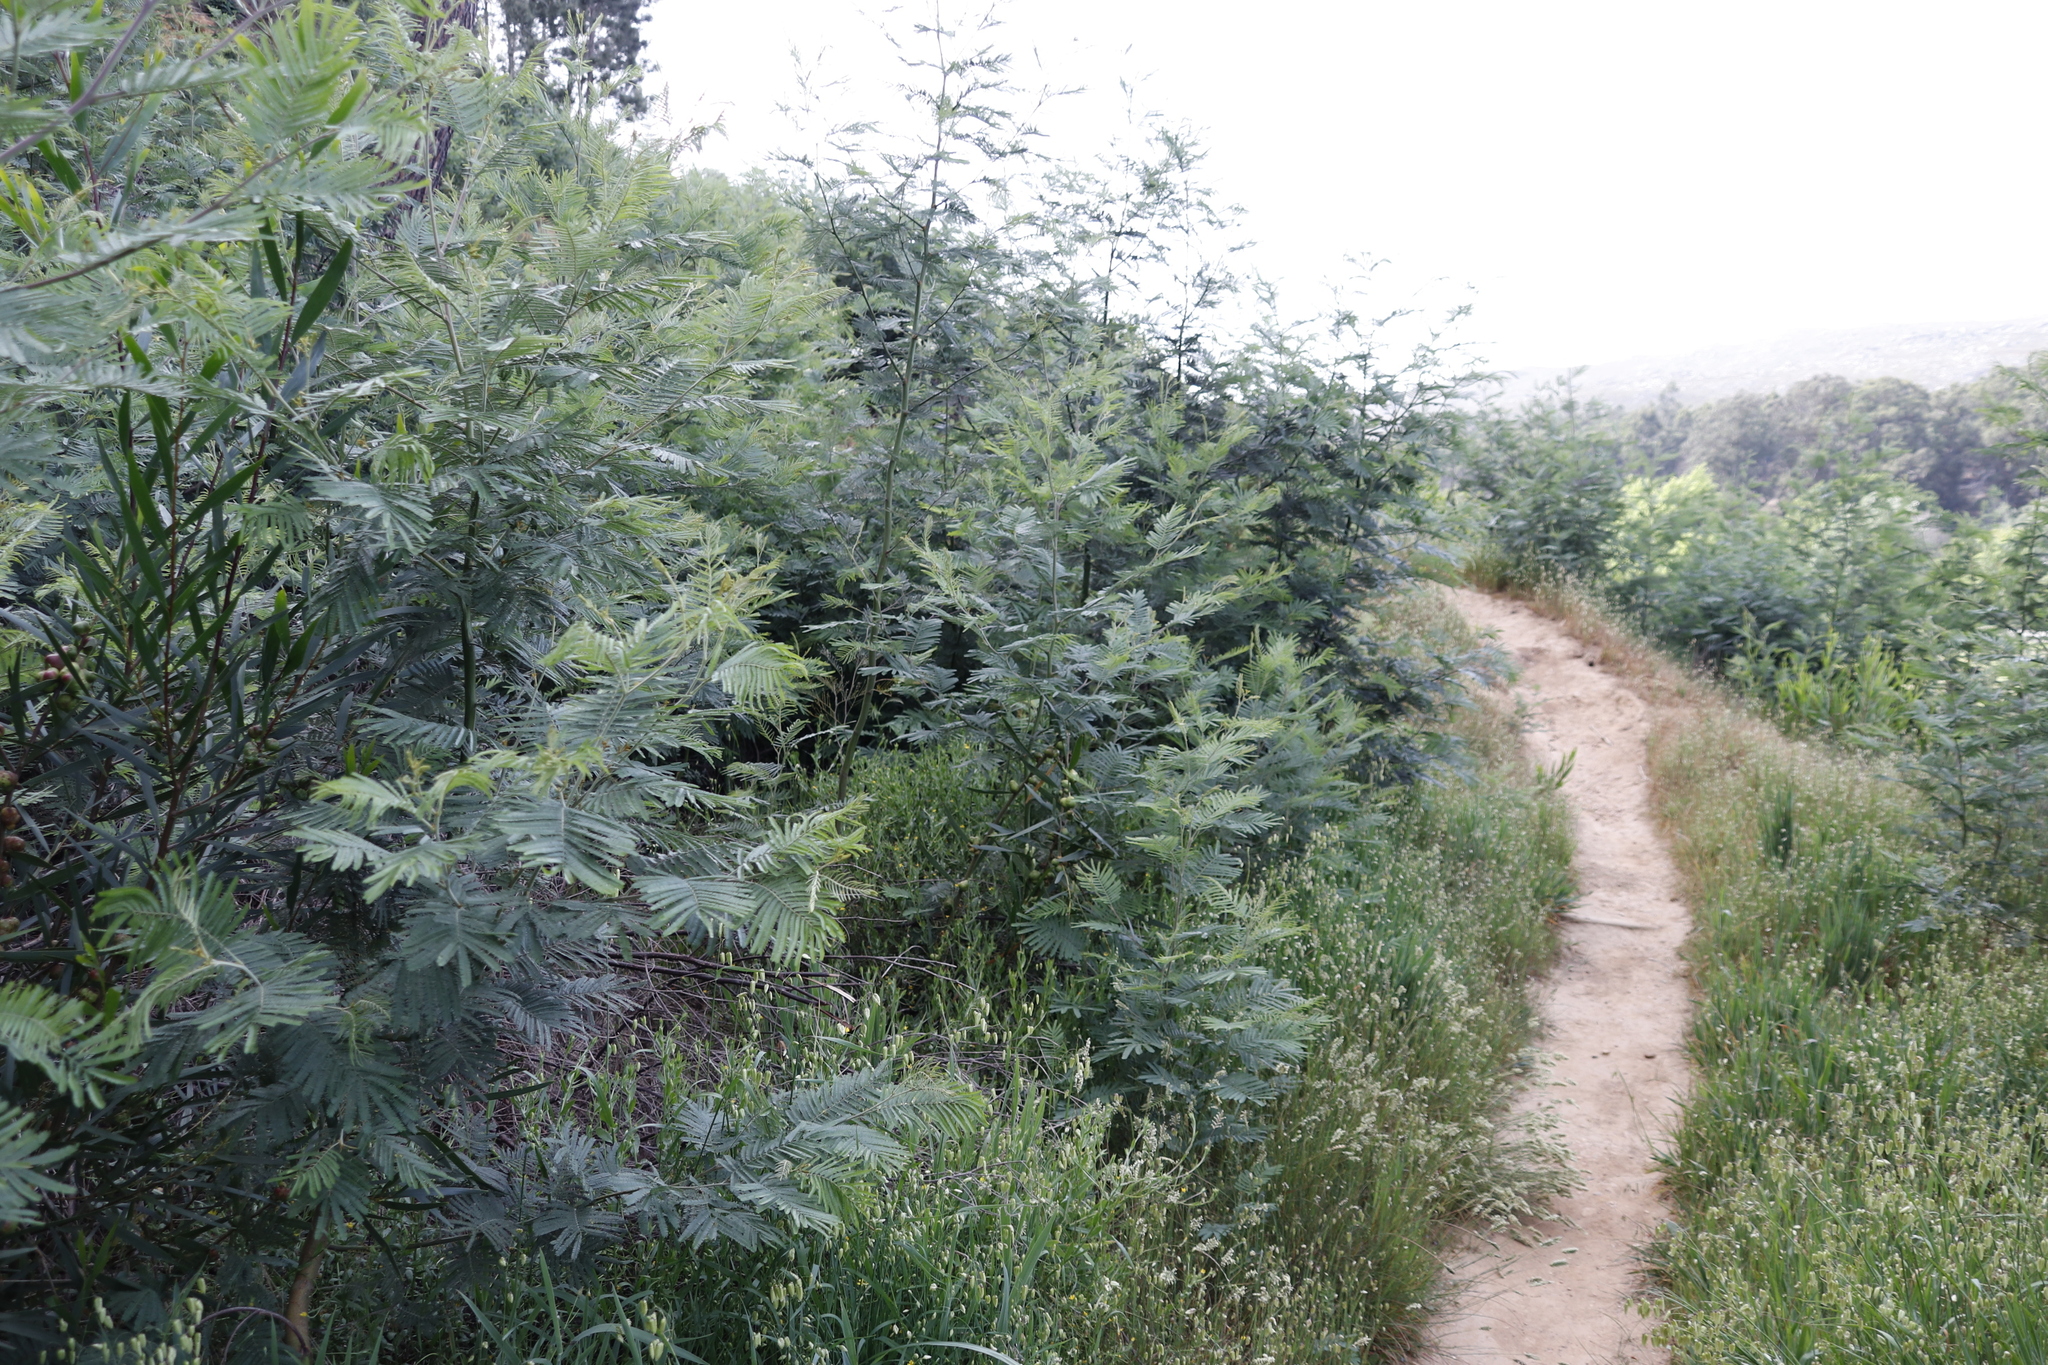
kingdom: Plantae
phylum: Tracheophyta
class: Magnoliopsida
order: Fabales
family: Fabaceae
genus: Acacia
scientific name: Acacia mearnsii
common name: Black wattle
